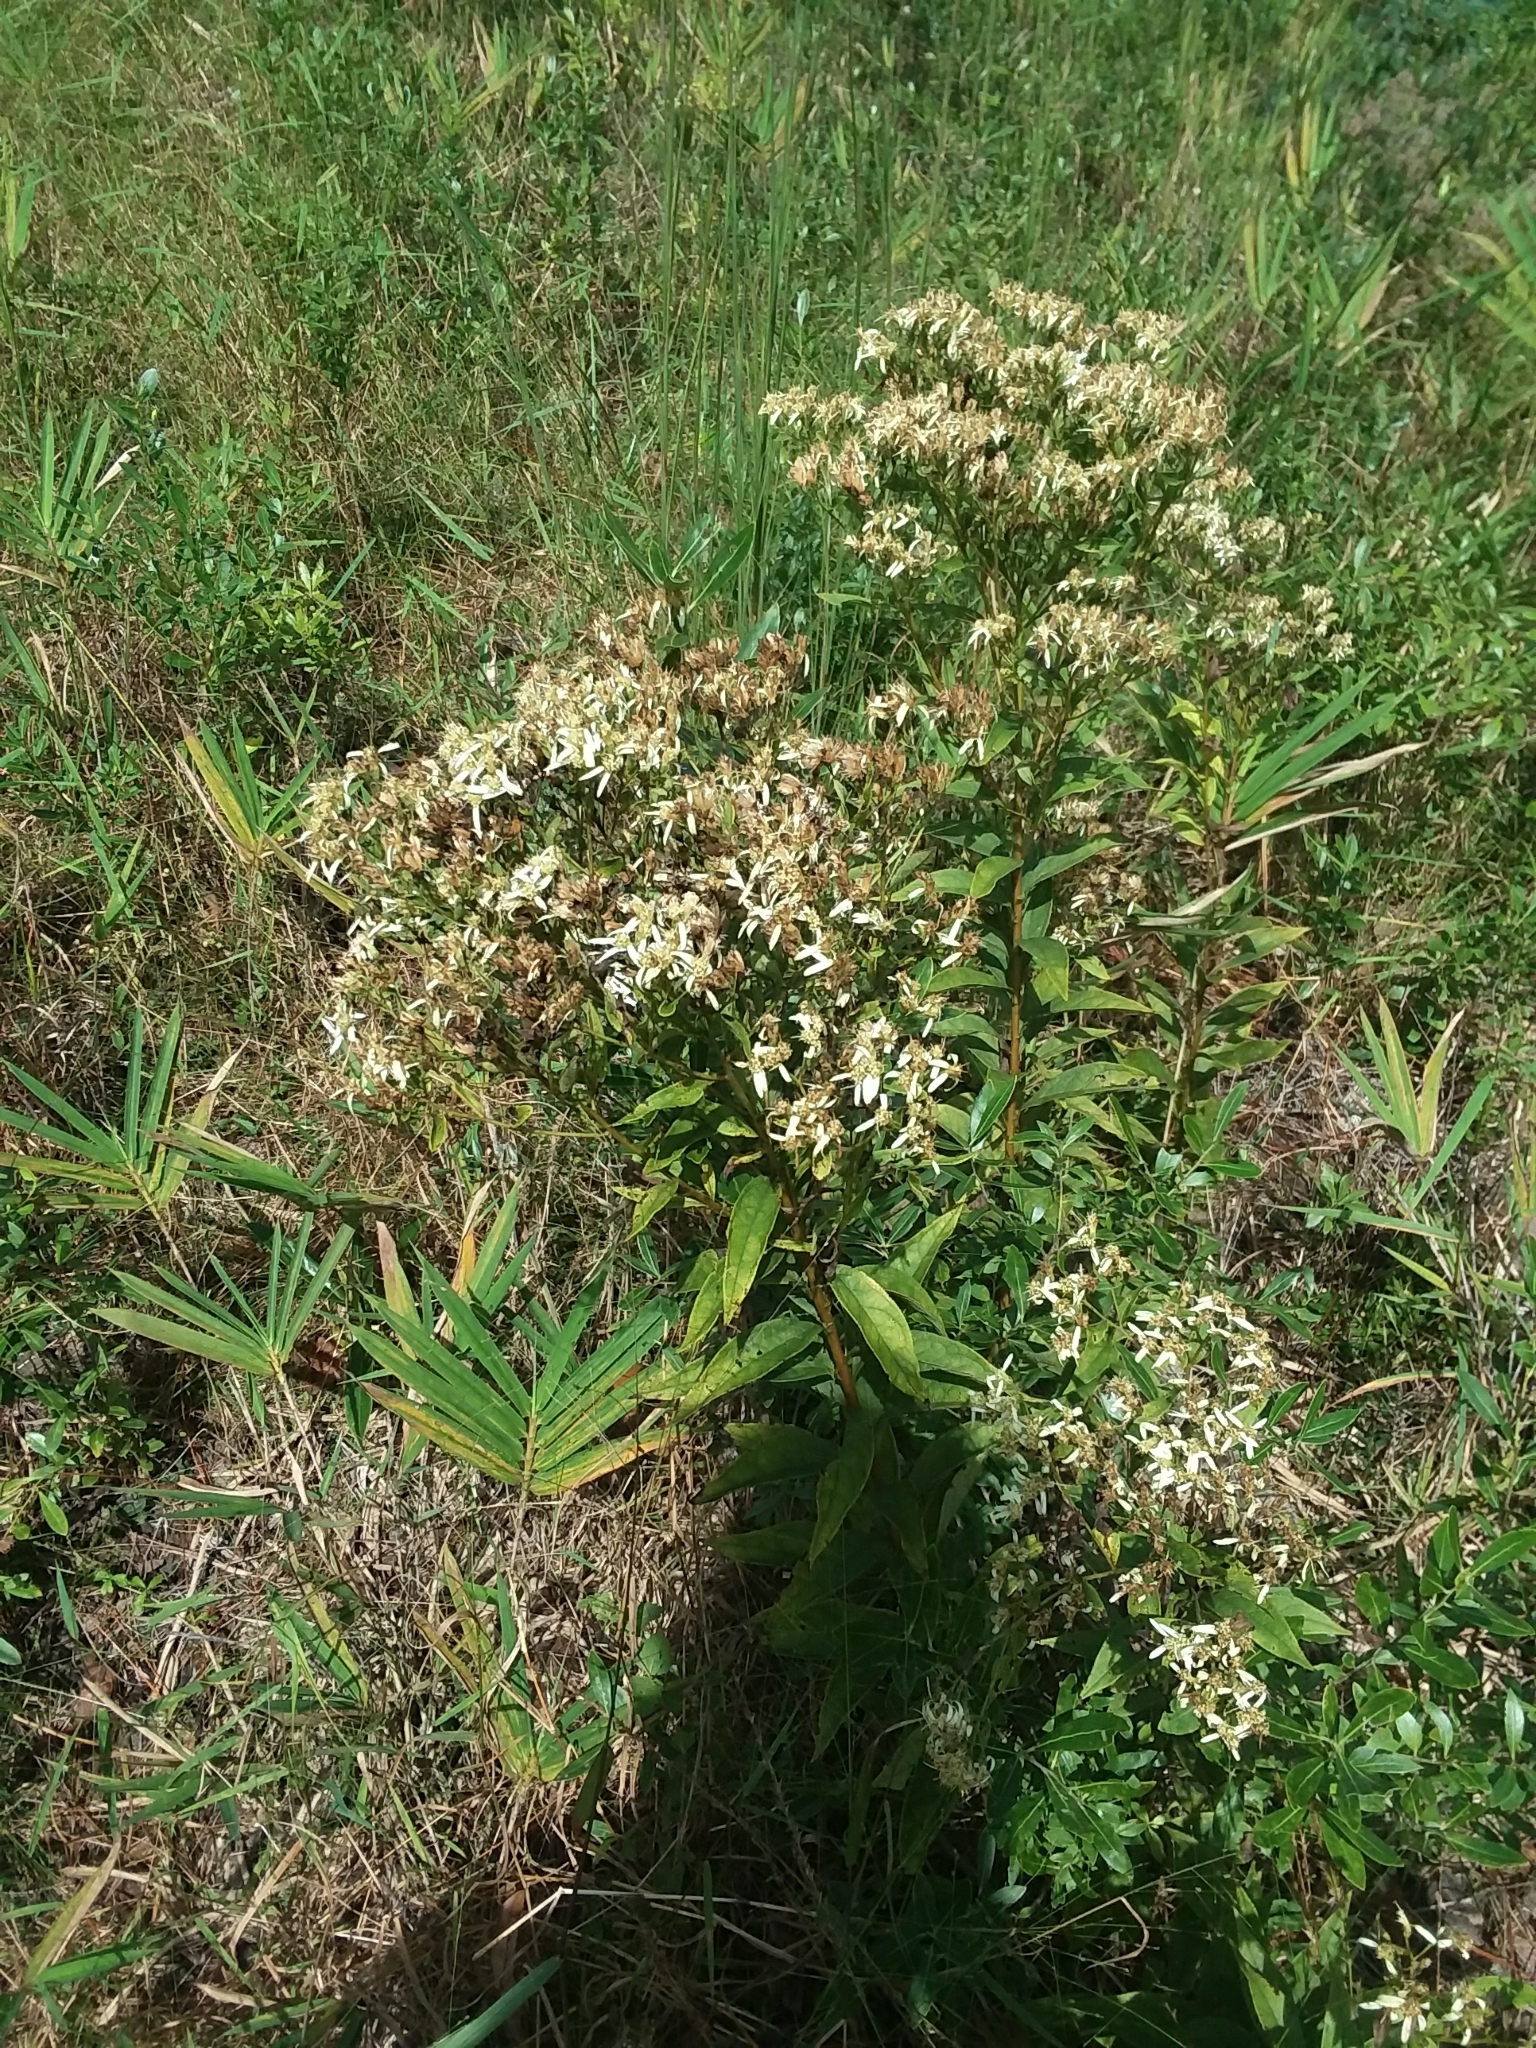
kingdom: Plantae
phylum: Tracheophyta
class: Magnoliopsida
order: Asterales
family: Asteraceae
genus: Doellingeria
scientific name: Doellingeria sericocarpoides
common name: Southern tall flat-top aster
